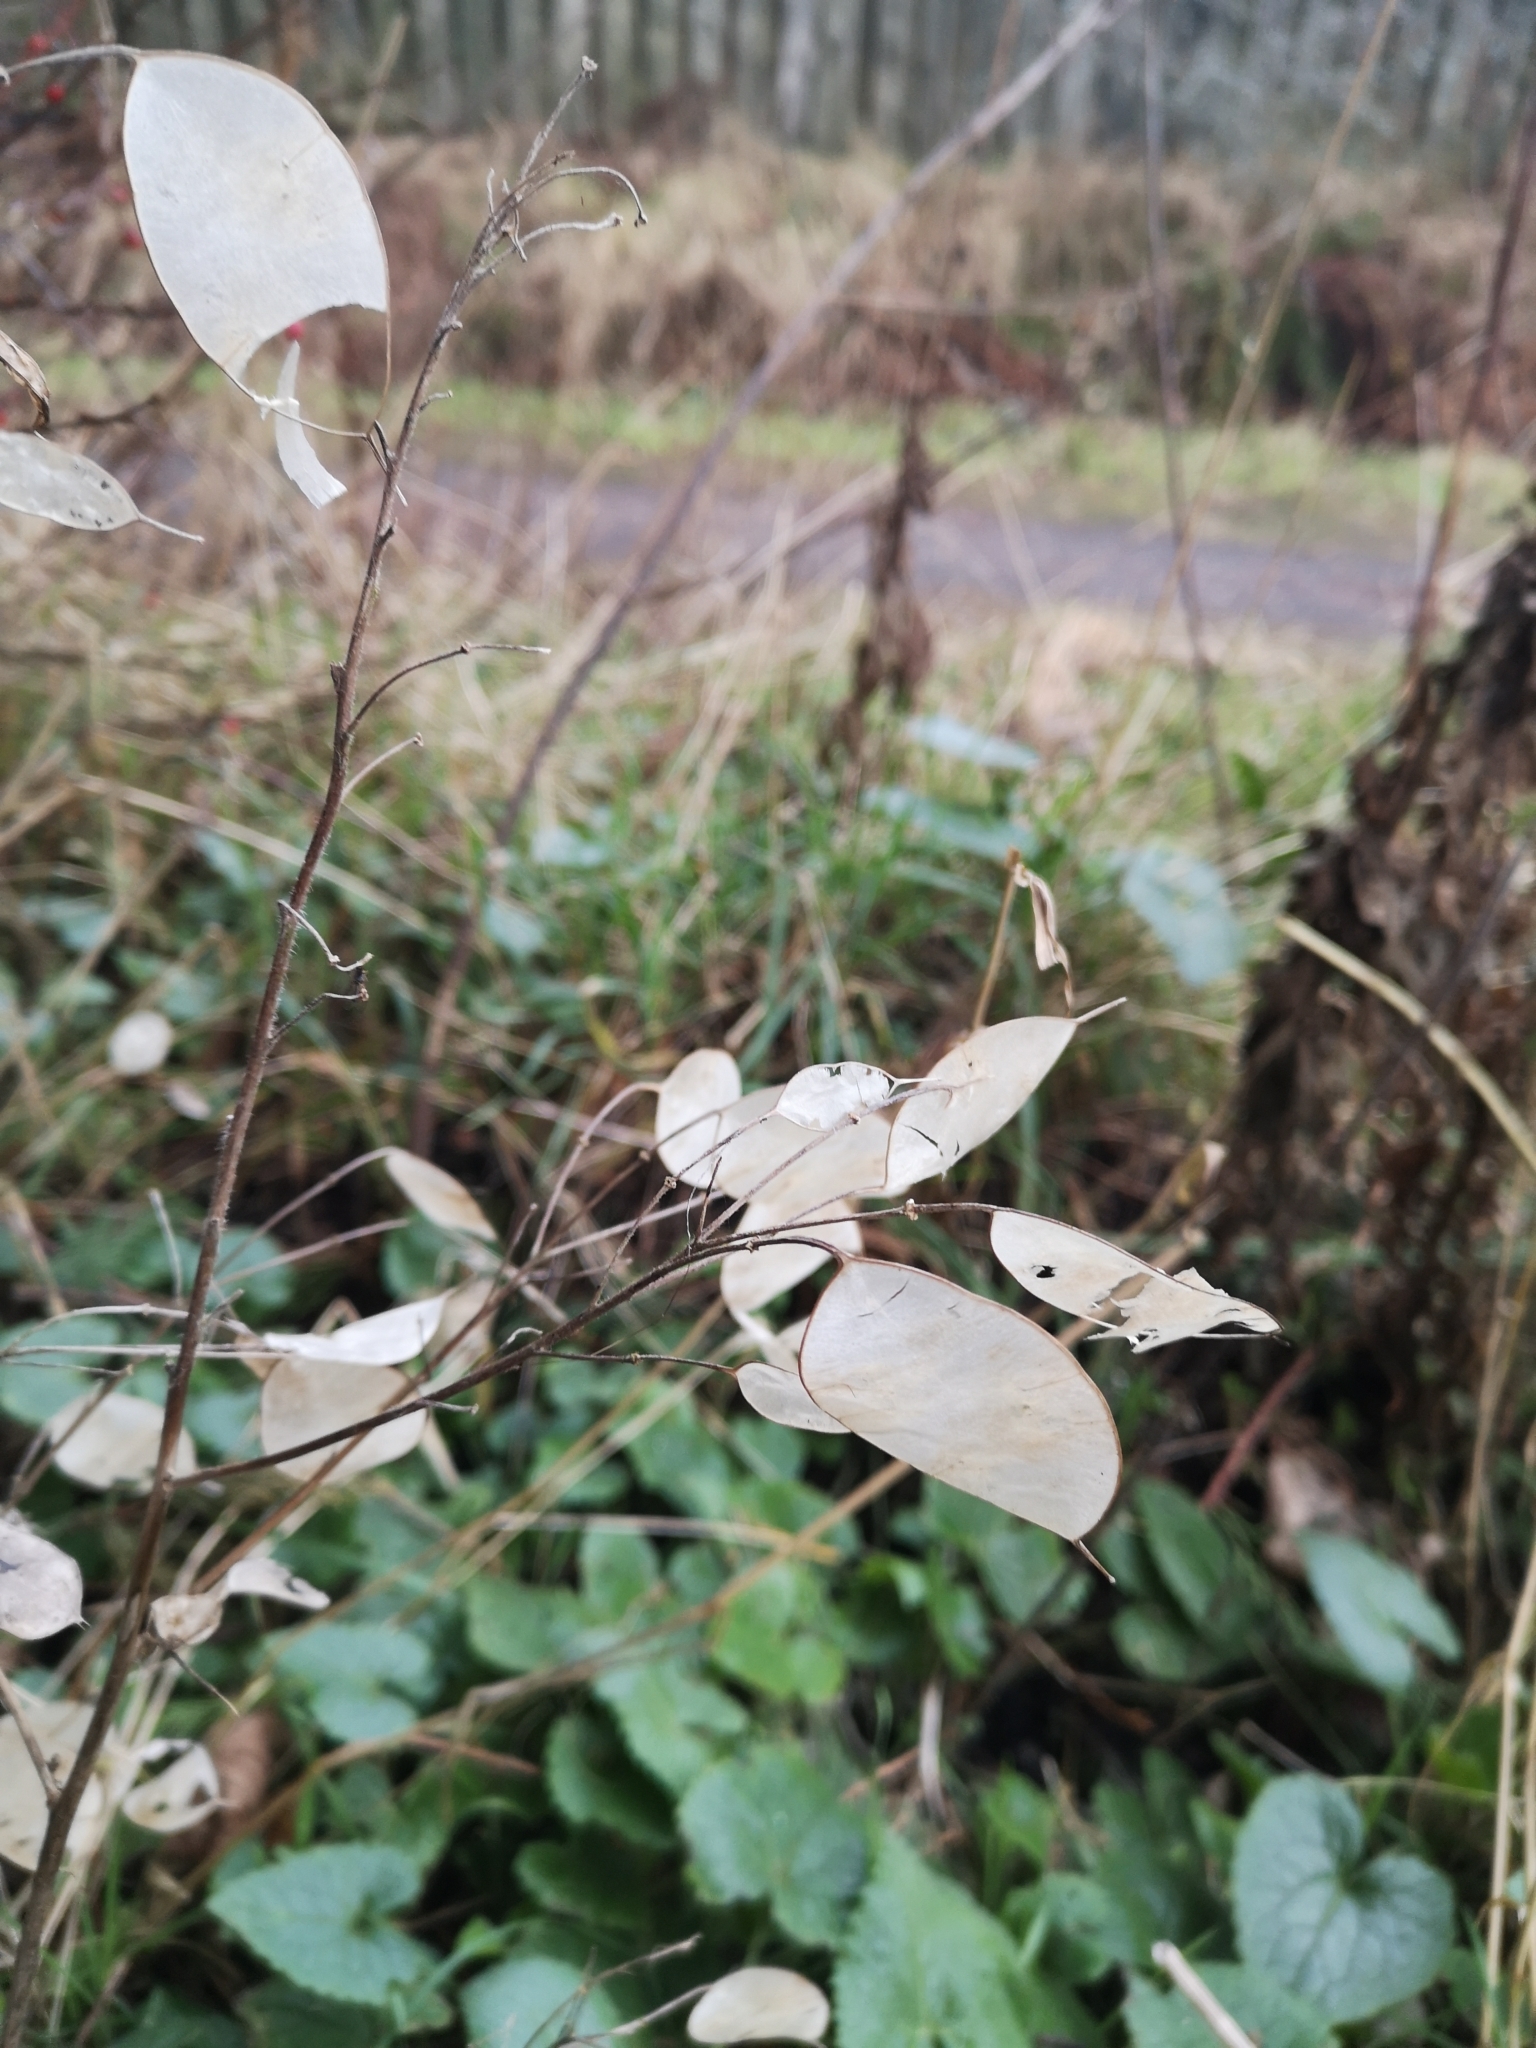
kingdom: Plantae
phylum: Tracheophyta
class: Magnoliopsida
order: Brassicales
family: Brassicaceae
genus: Lunaria
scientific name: Lunaria annua
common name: Honesty
